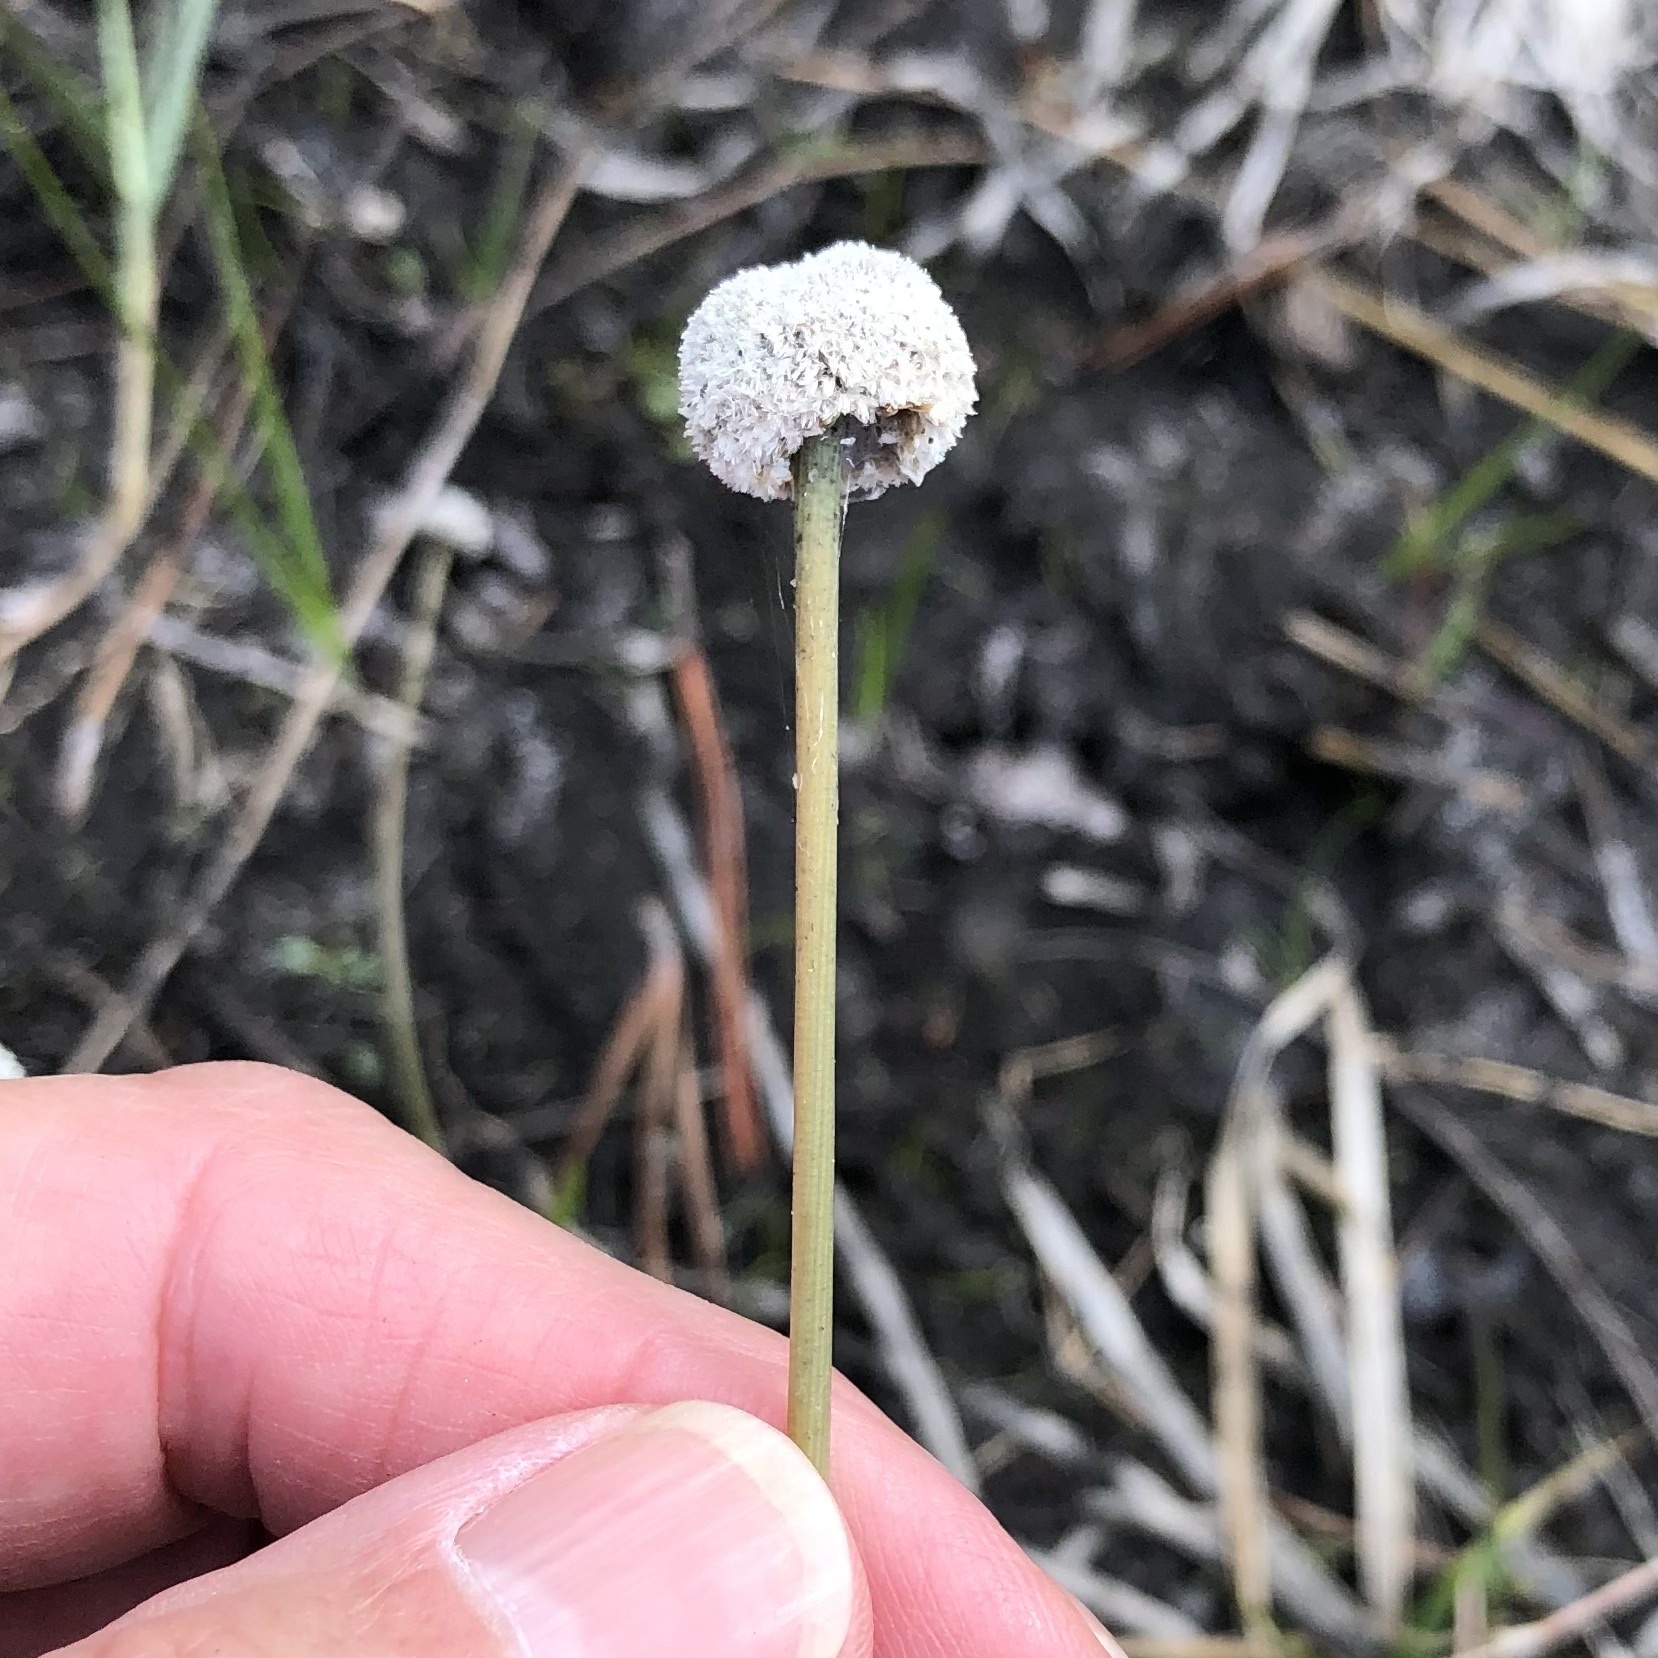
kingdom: Plantae
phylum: Tracheophyta
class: Liliopsida
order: Poales
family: Eriocaulaceae
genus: Eriocaulon
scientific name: Eriocaulon compressum
